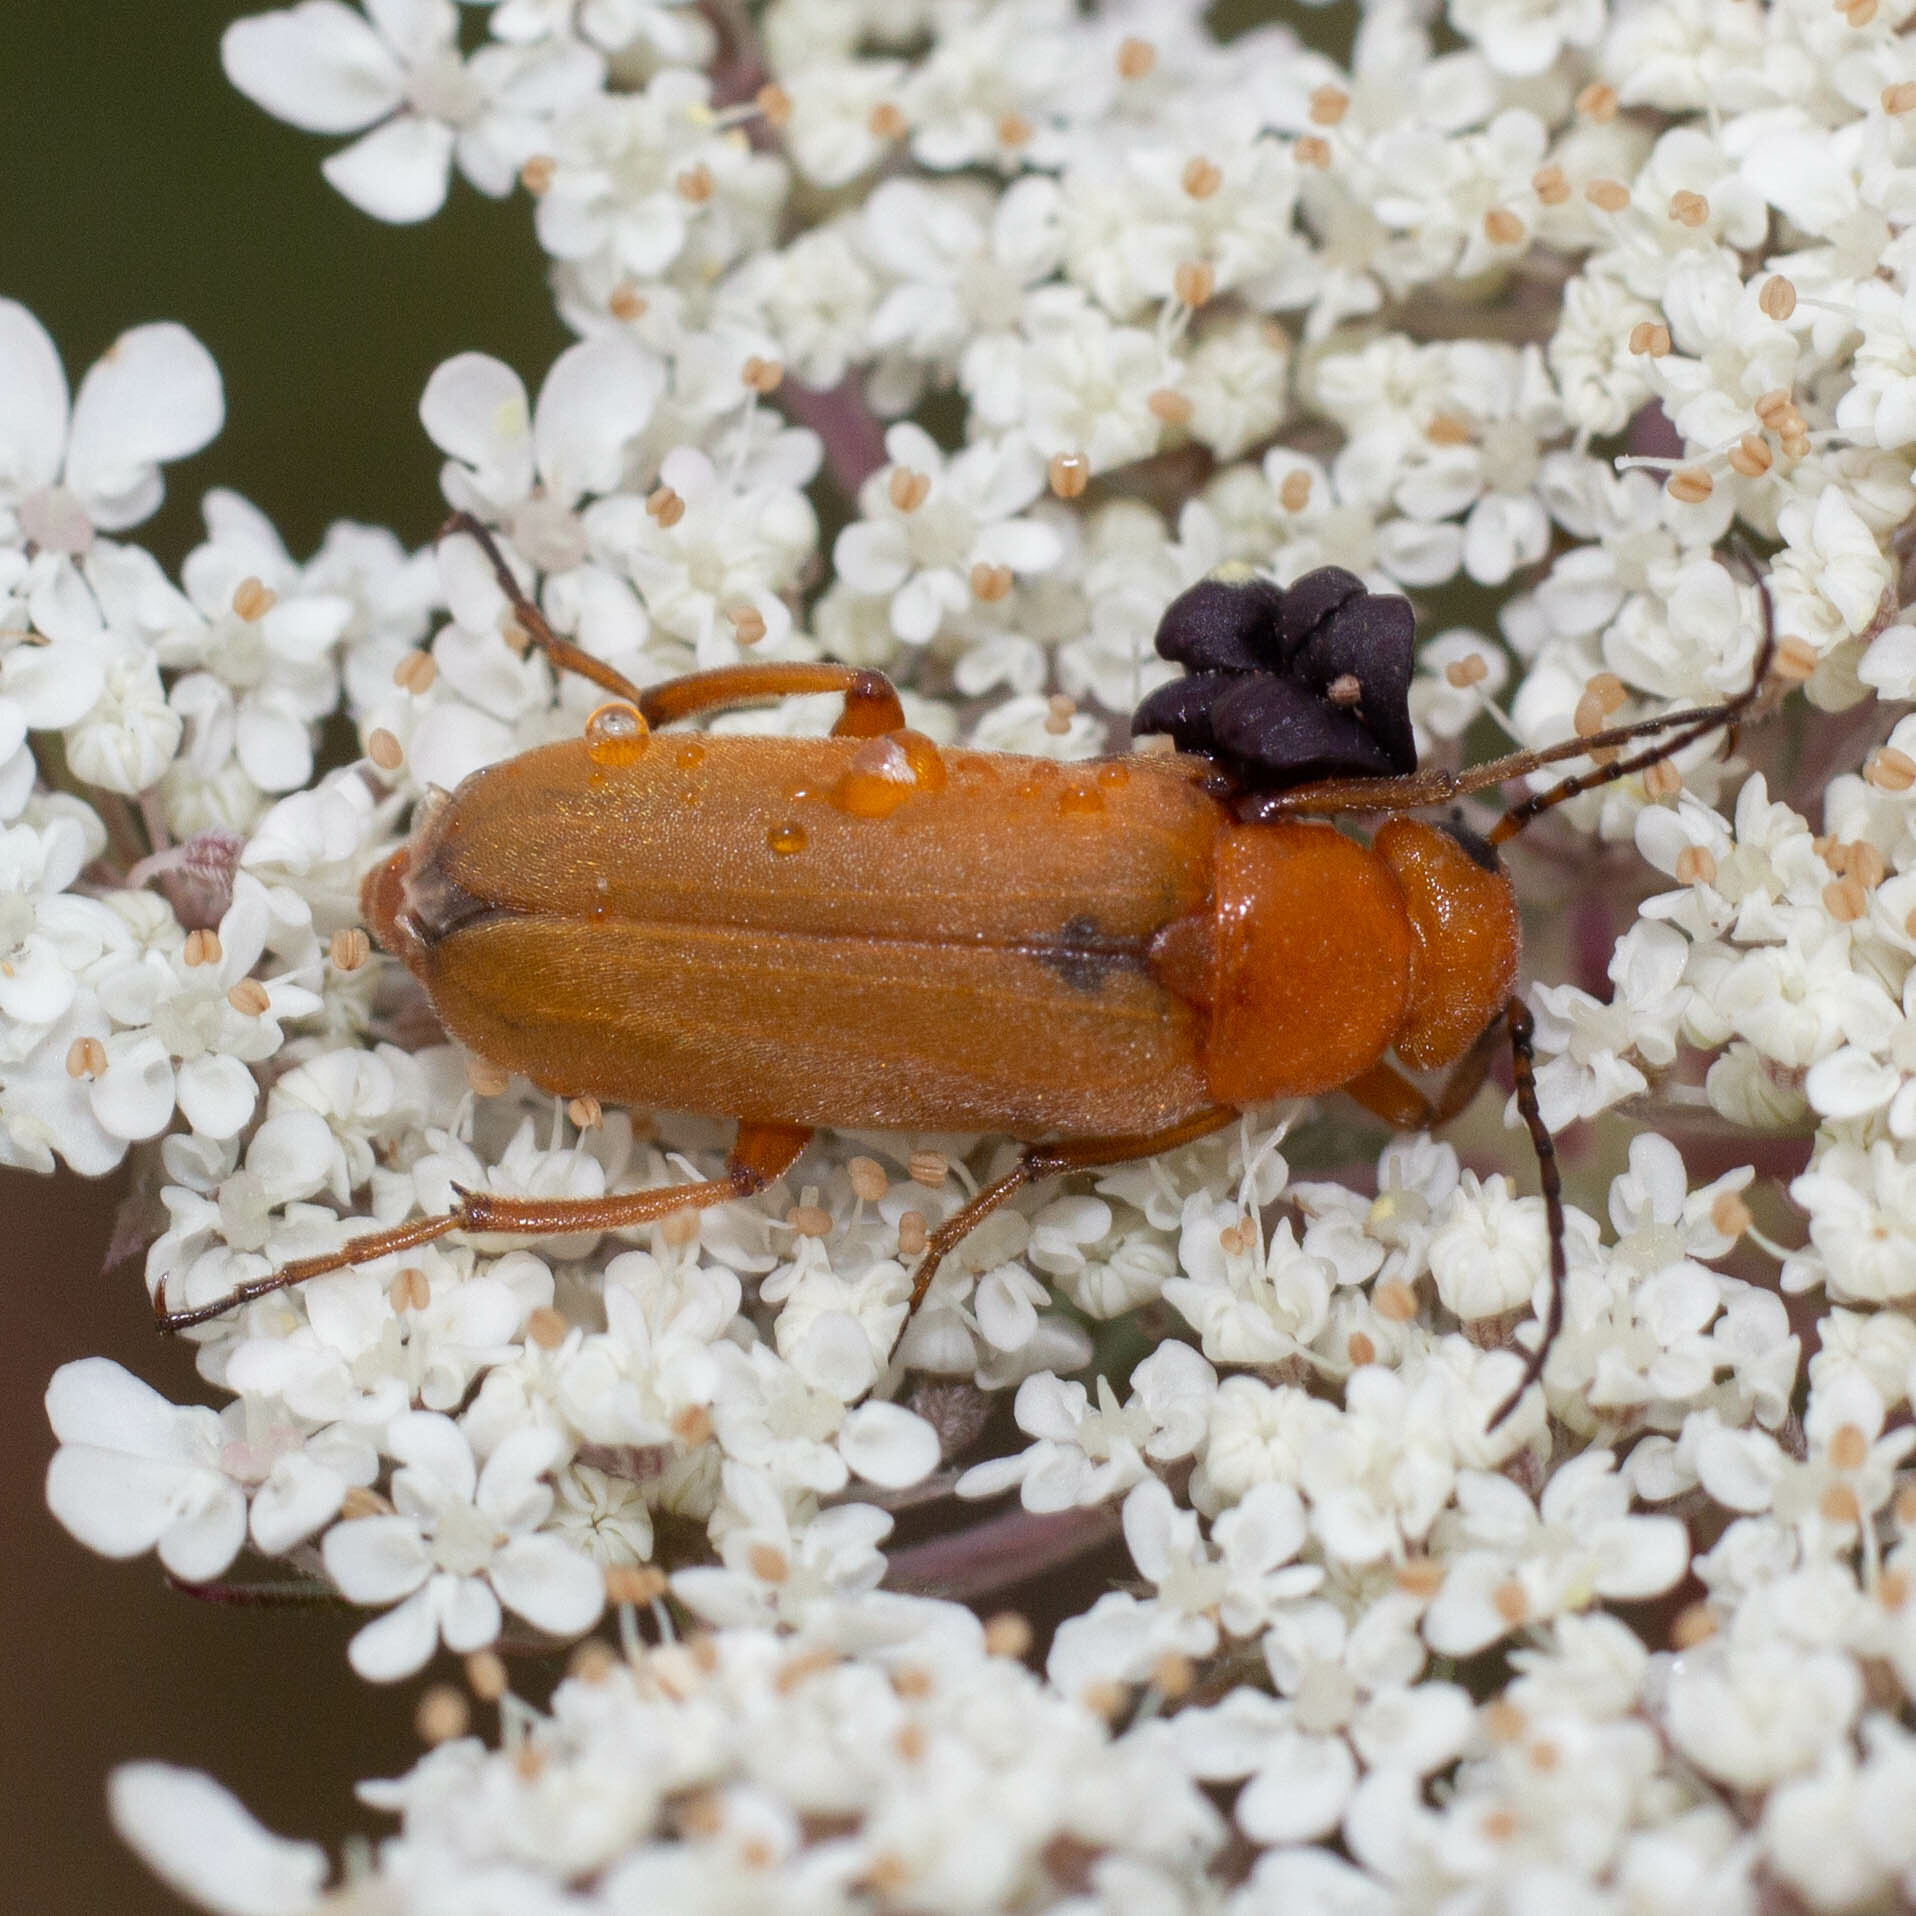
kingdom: Animalia
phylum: Arthropoda
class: Insecta
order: Coleoptera
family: Meloidae
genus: Zonitis
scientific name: Zonitis flava
